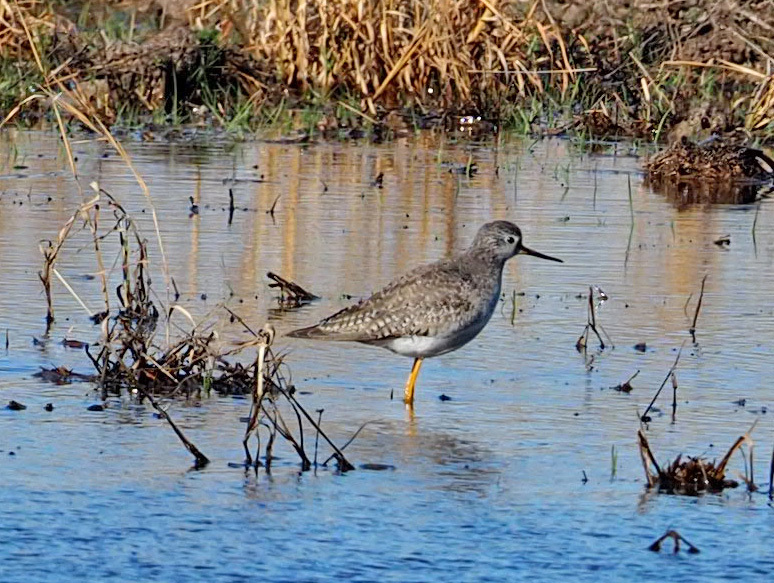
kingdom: Animalia
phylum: Chordata
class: Aves
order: Charadriiformes
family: Scolopacidae
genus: Tringa
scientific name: Tringa flavipes
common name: Lesser yellowlegs
